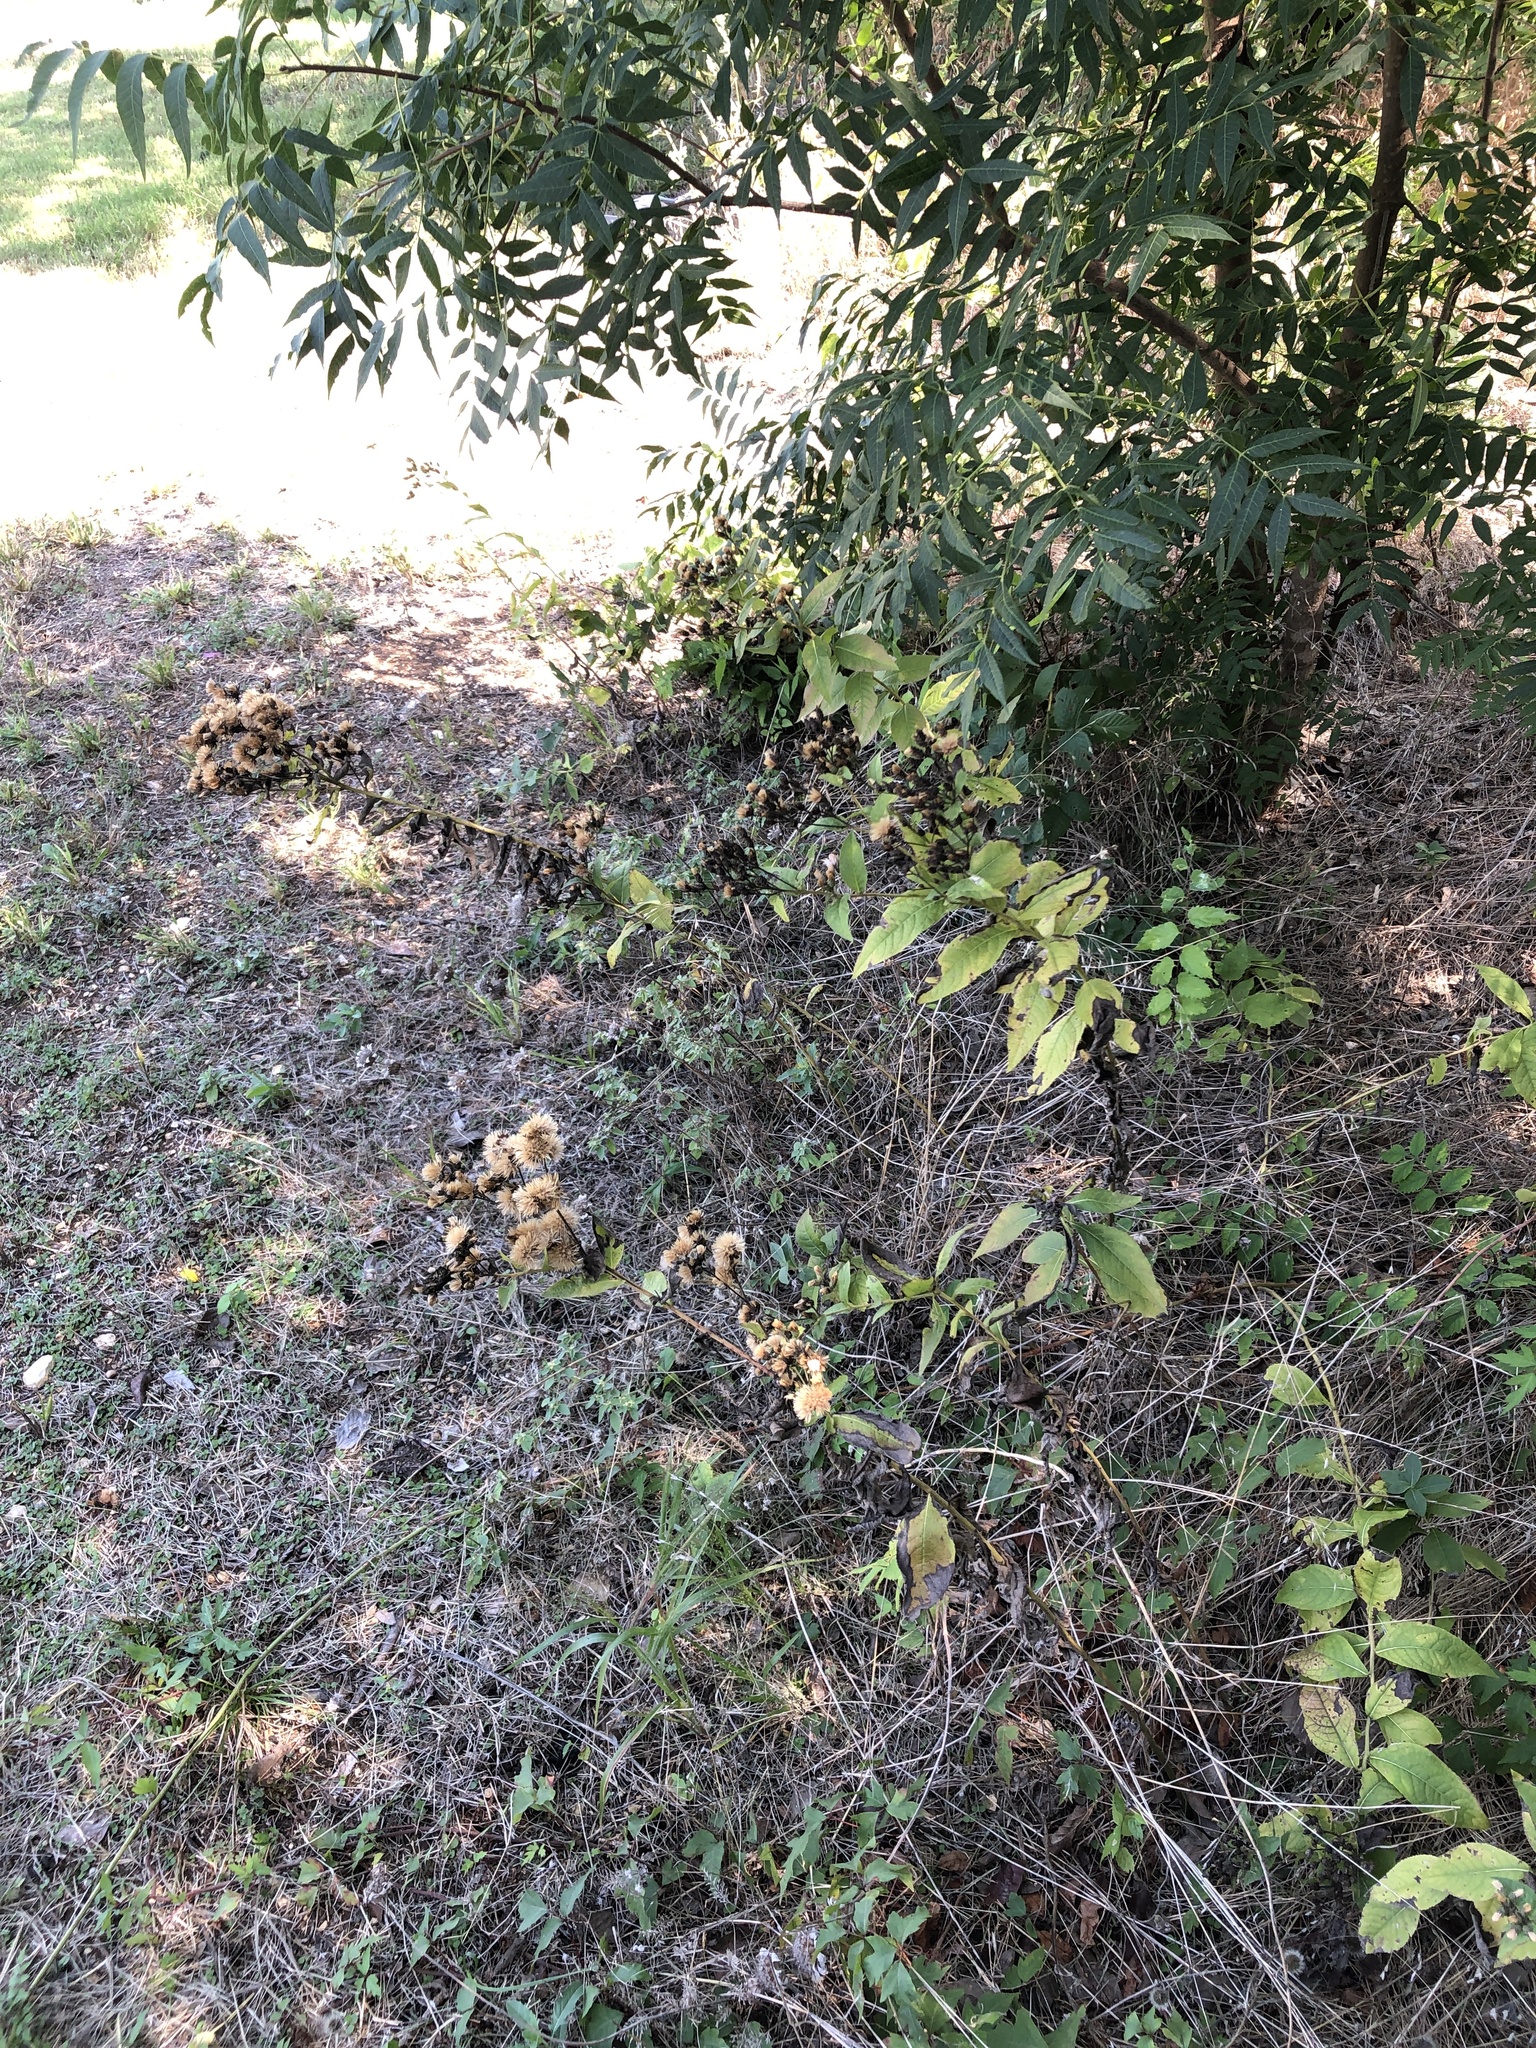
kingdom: Plantae
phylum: Tracheophyta
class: Magnoliopsida
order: Asterales
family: Asteraceae
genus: Vernonia
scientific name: Vernonia baldwinii
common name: Western ironweed
